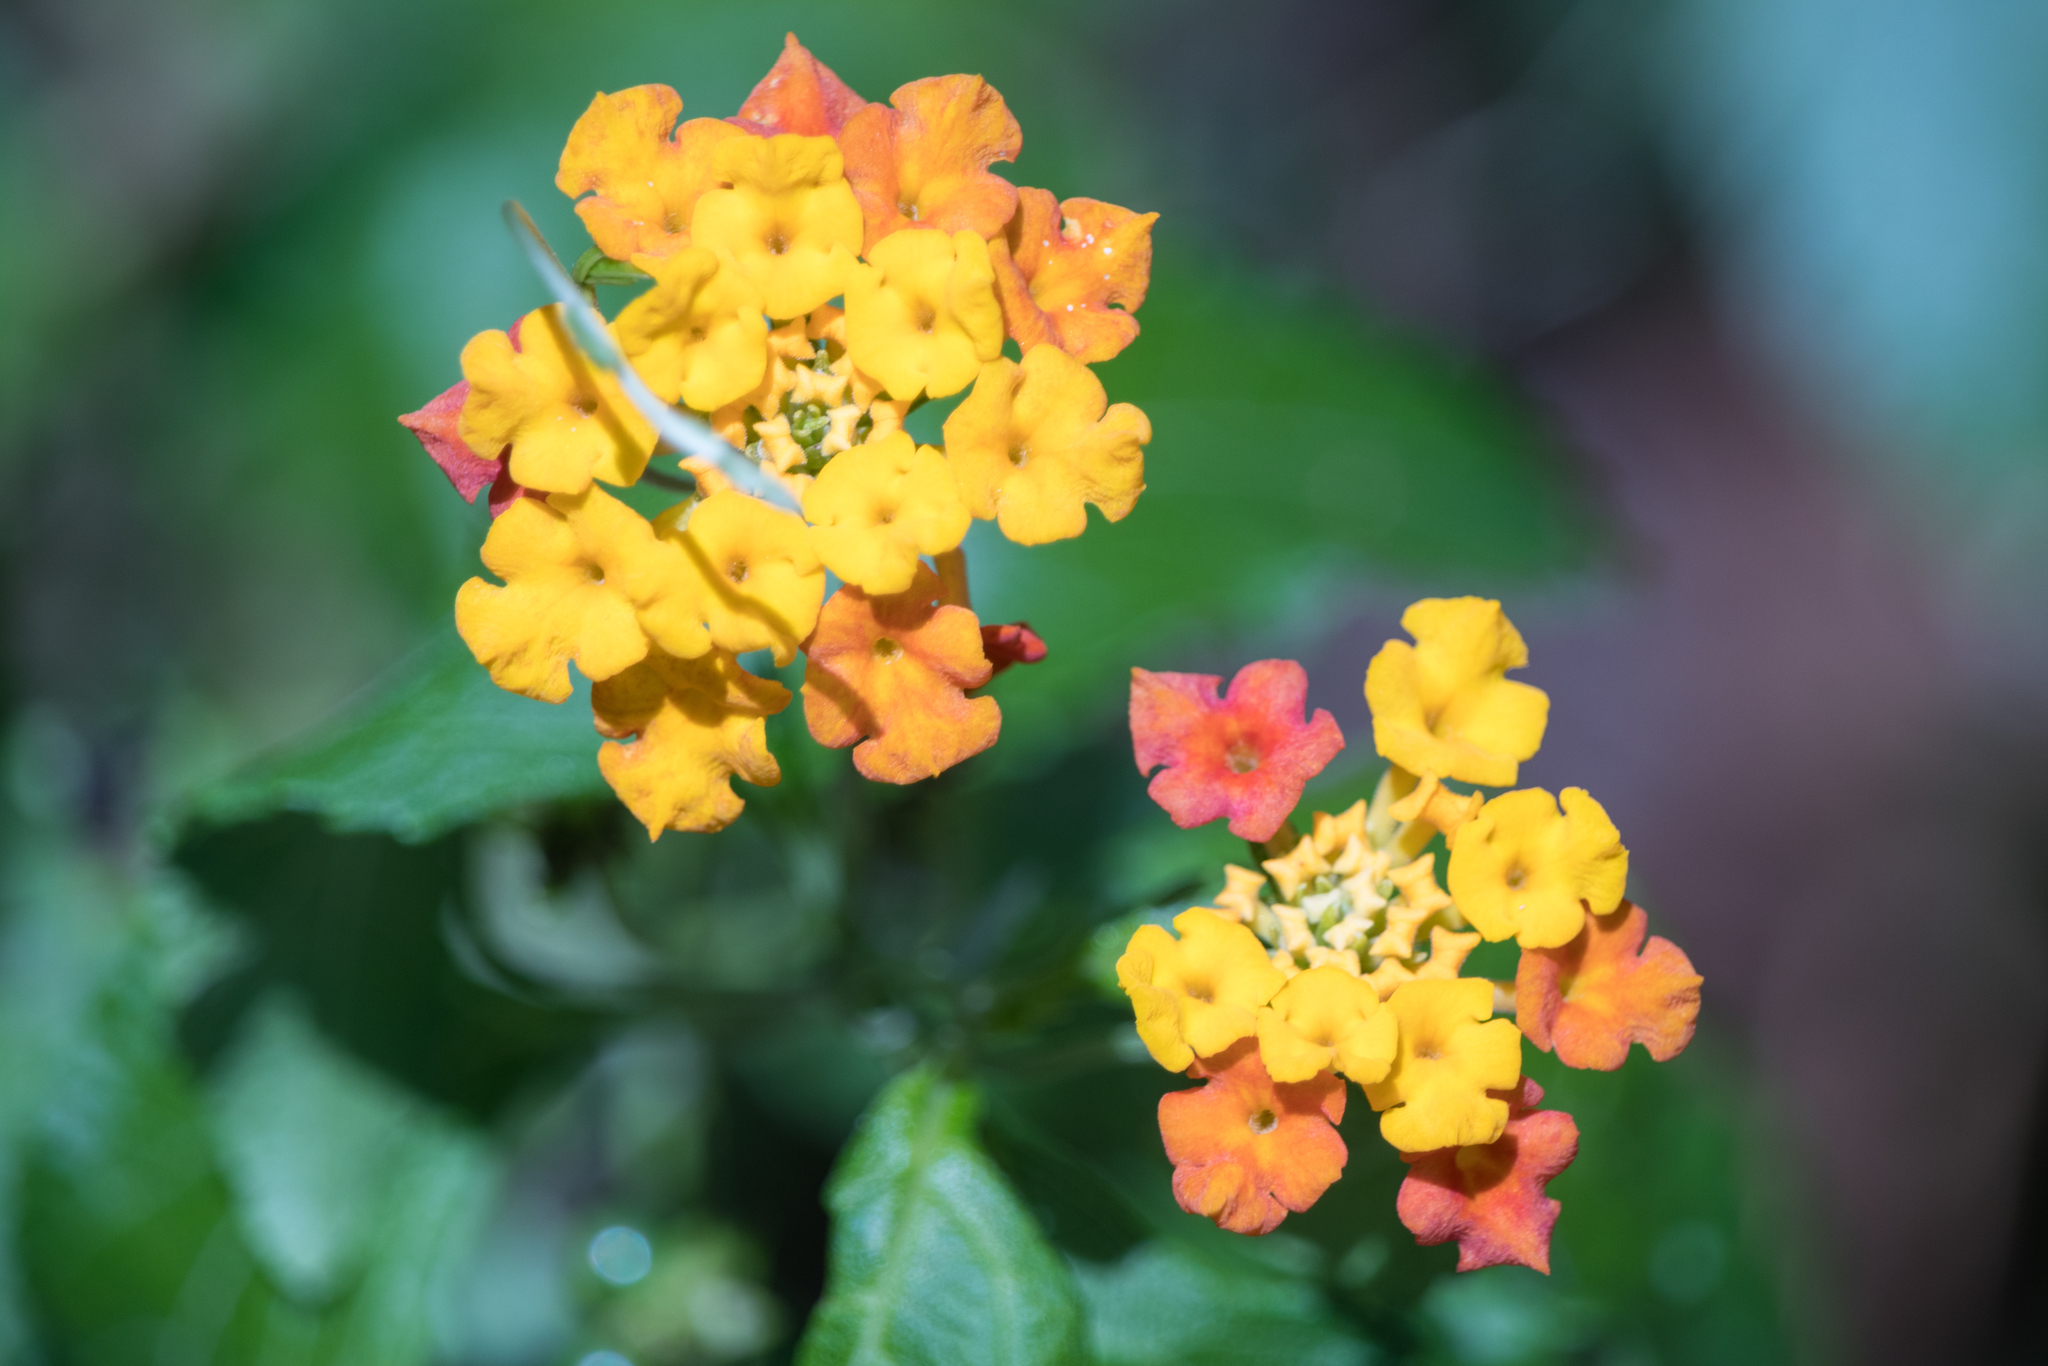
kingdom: Plantae
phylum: Tracheophyta
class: Magnoliopsida
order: Lamiales
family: Verbenaceae
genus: Lantana
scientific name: Lantana strigocamara
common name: Lantana
